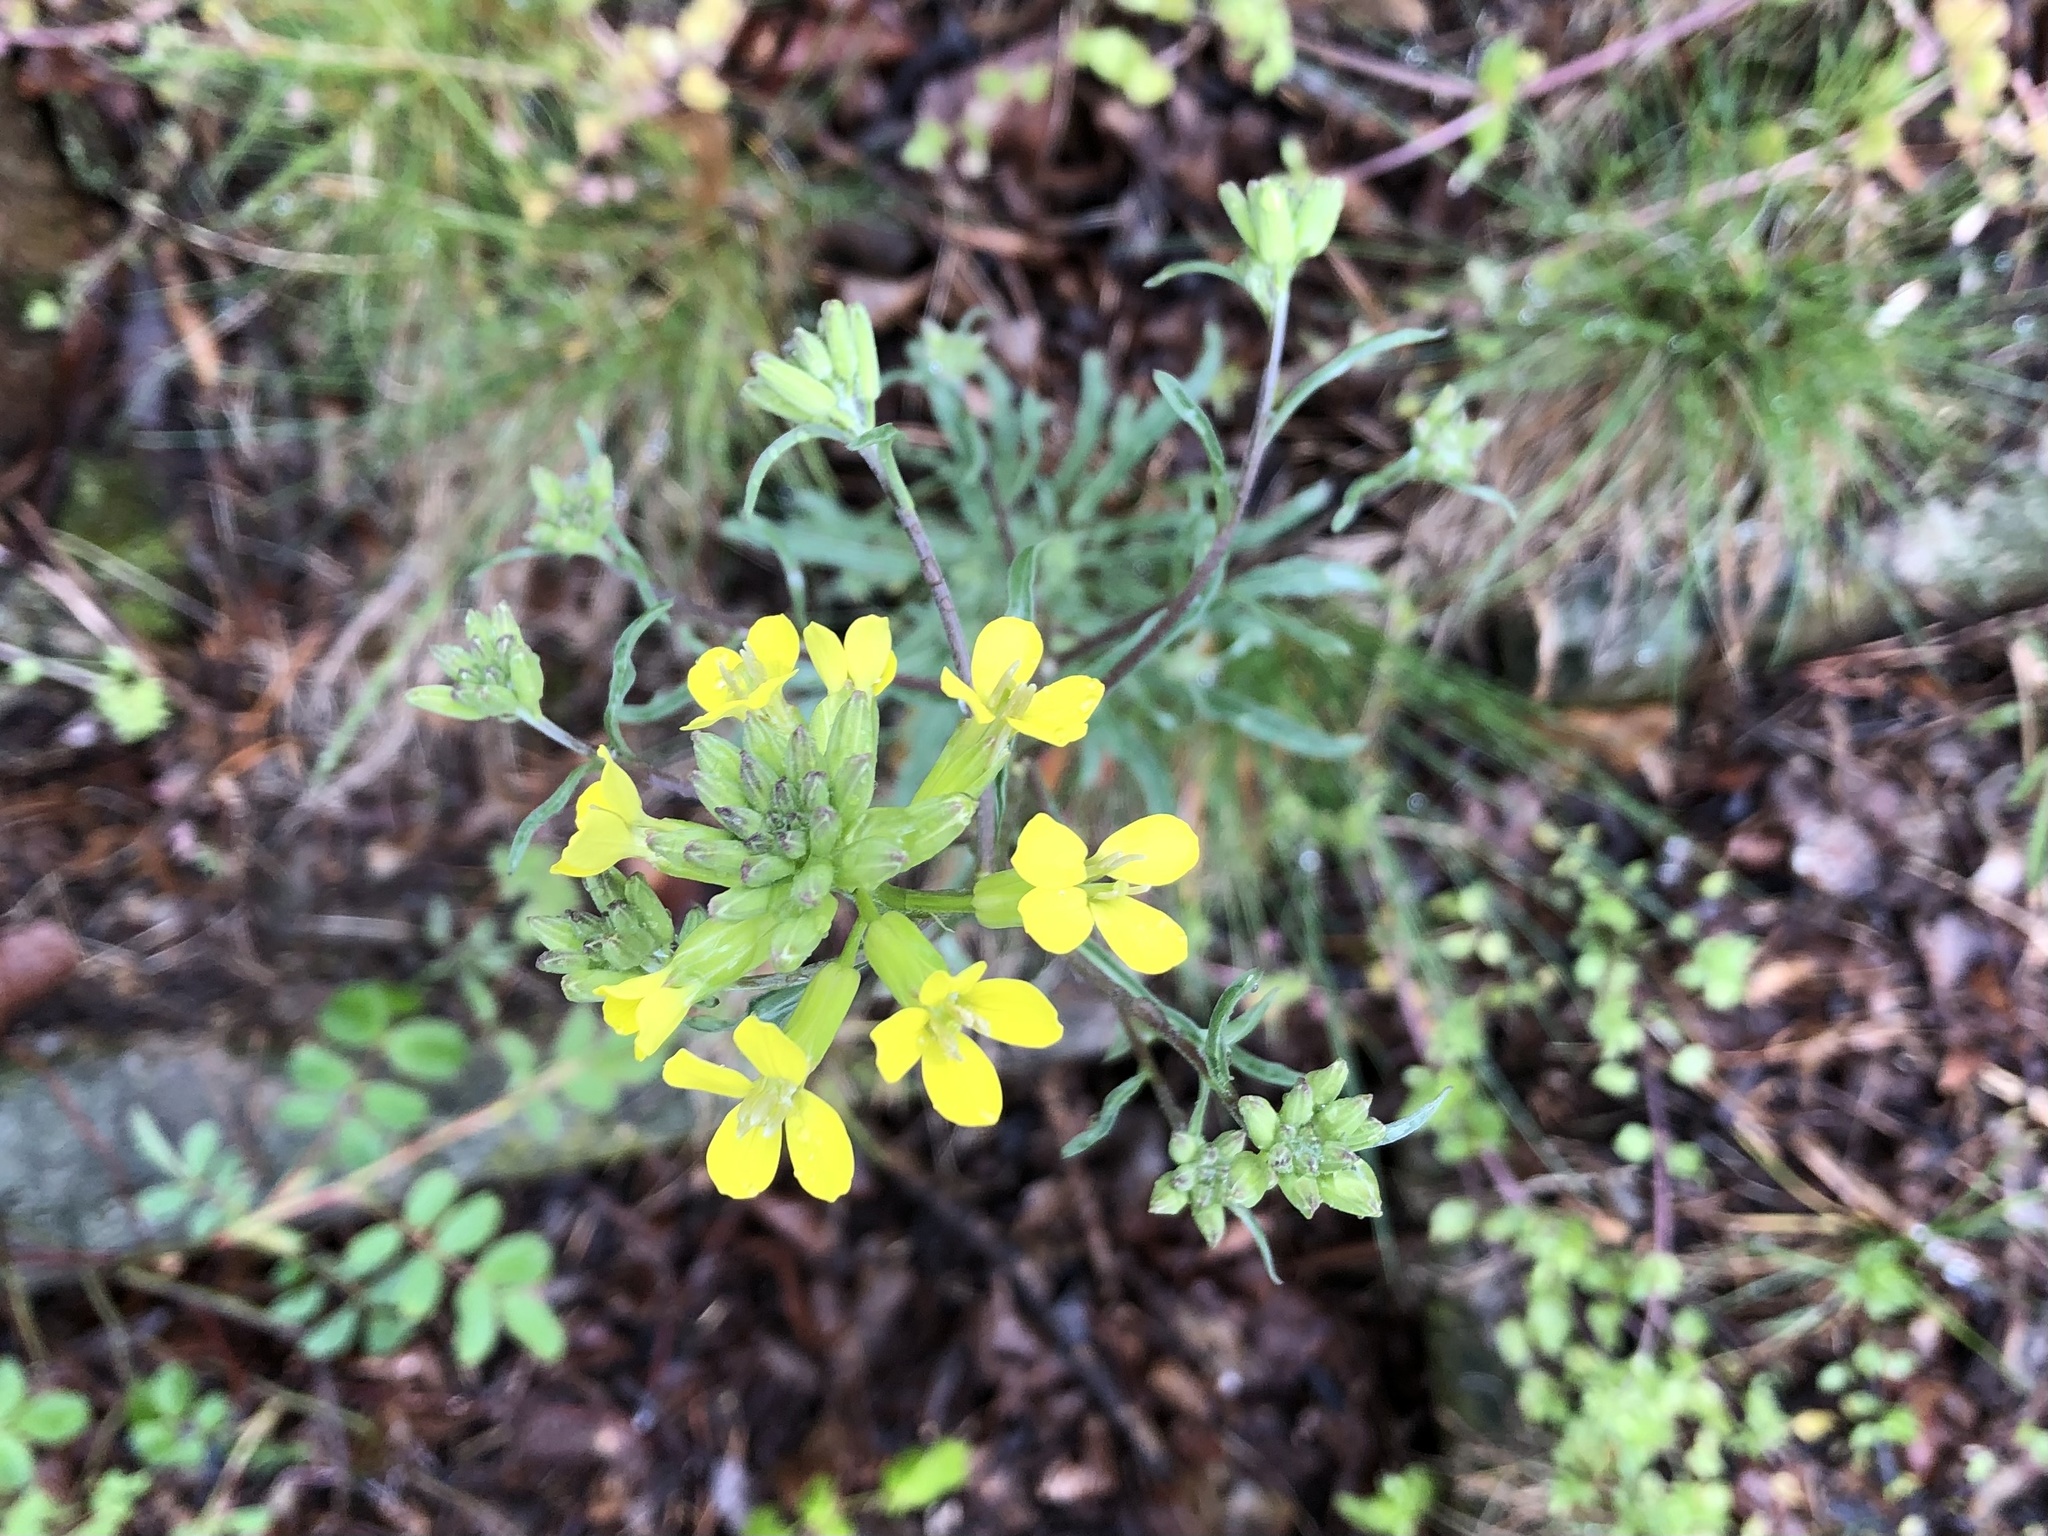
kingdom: Plantae
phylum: Tracheophyta
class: Magnoliopsida
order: Brassicales
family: Brassicaceae
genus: Erysimum
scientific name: Erysimum crepidifolium
